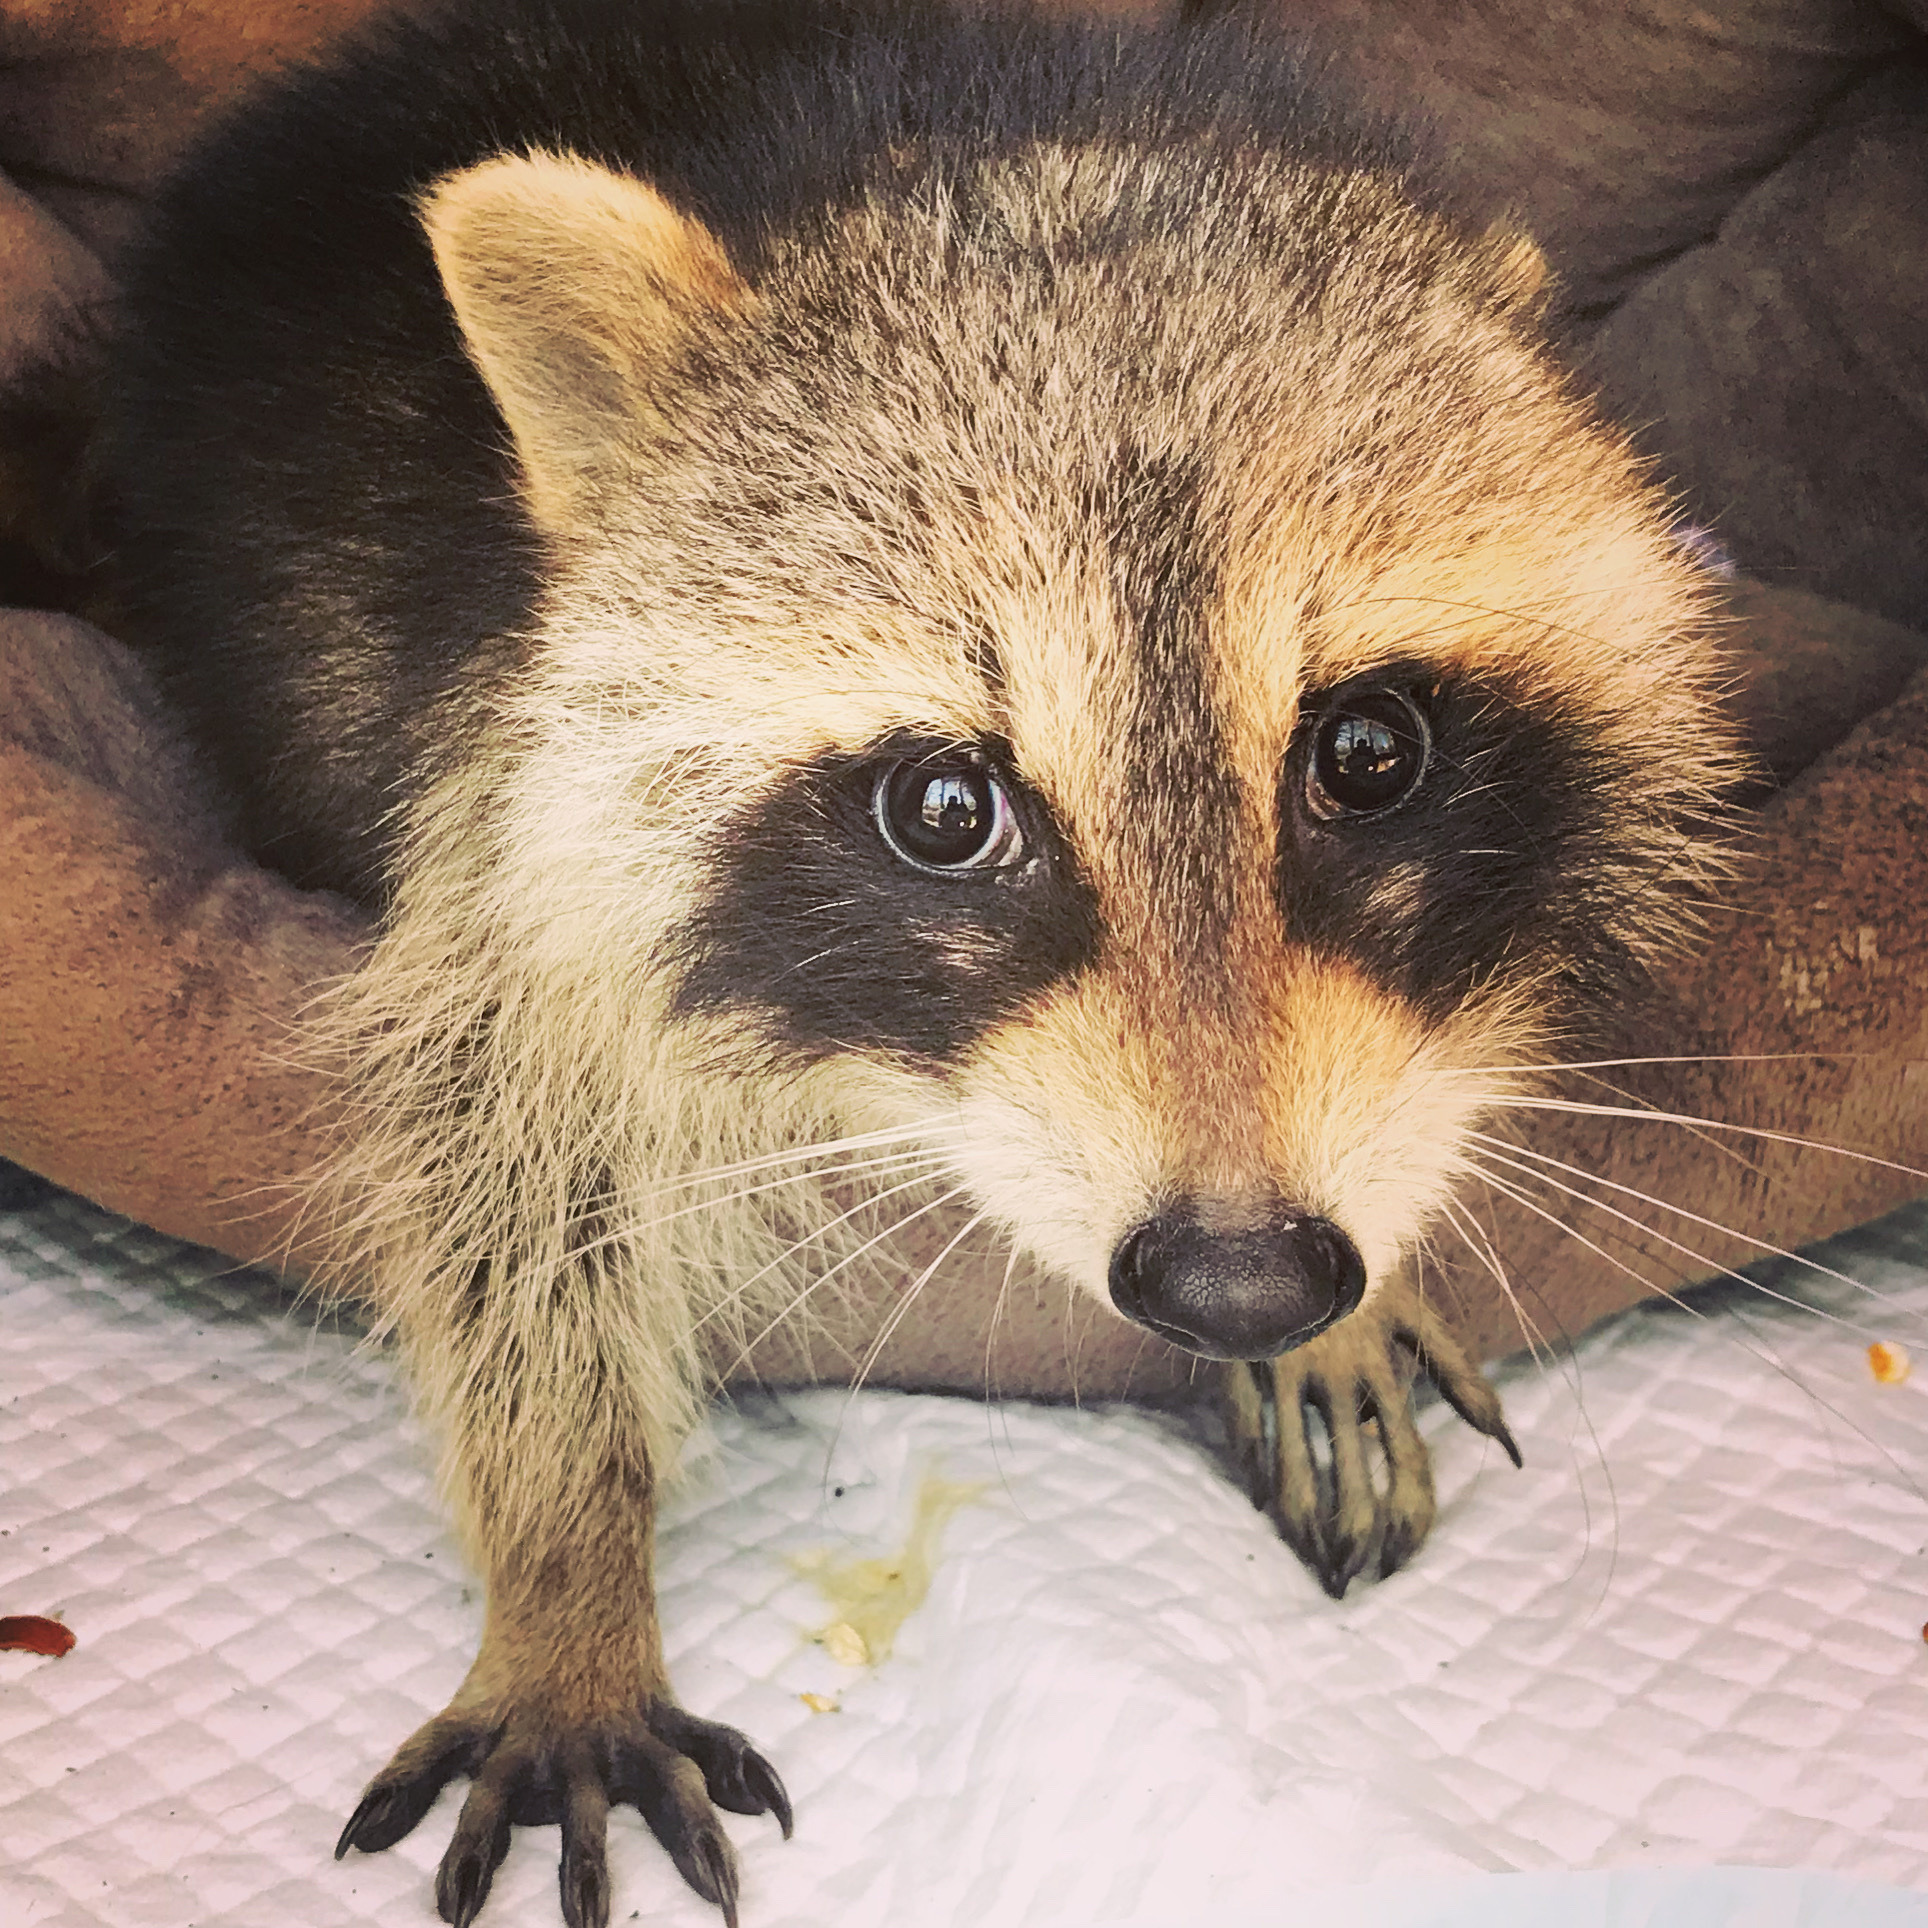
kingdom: Animalia
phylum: Chordata
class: Mammalia
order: Carnivora
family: Procyonidae
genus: Procyon
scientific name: Procyon lotor
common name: Raccoon
